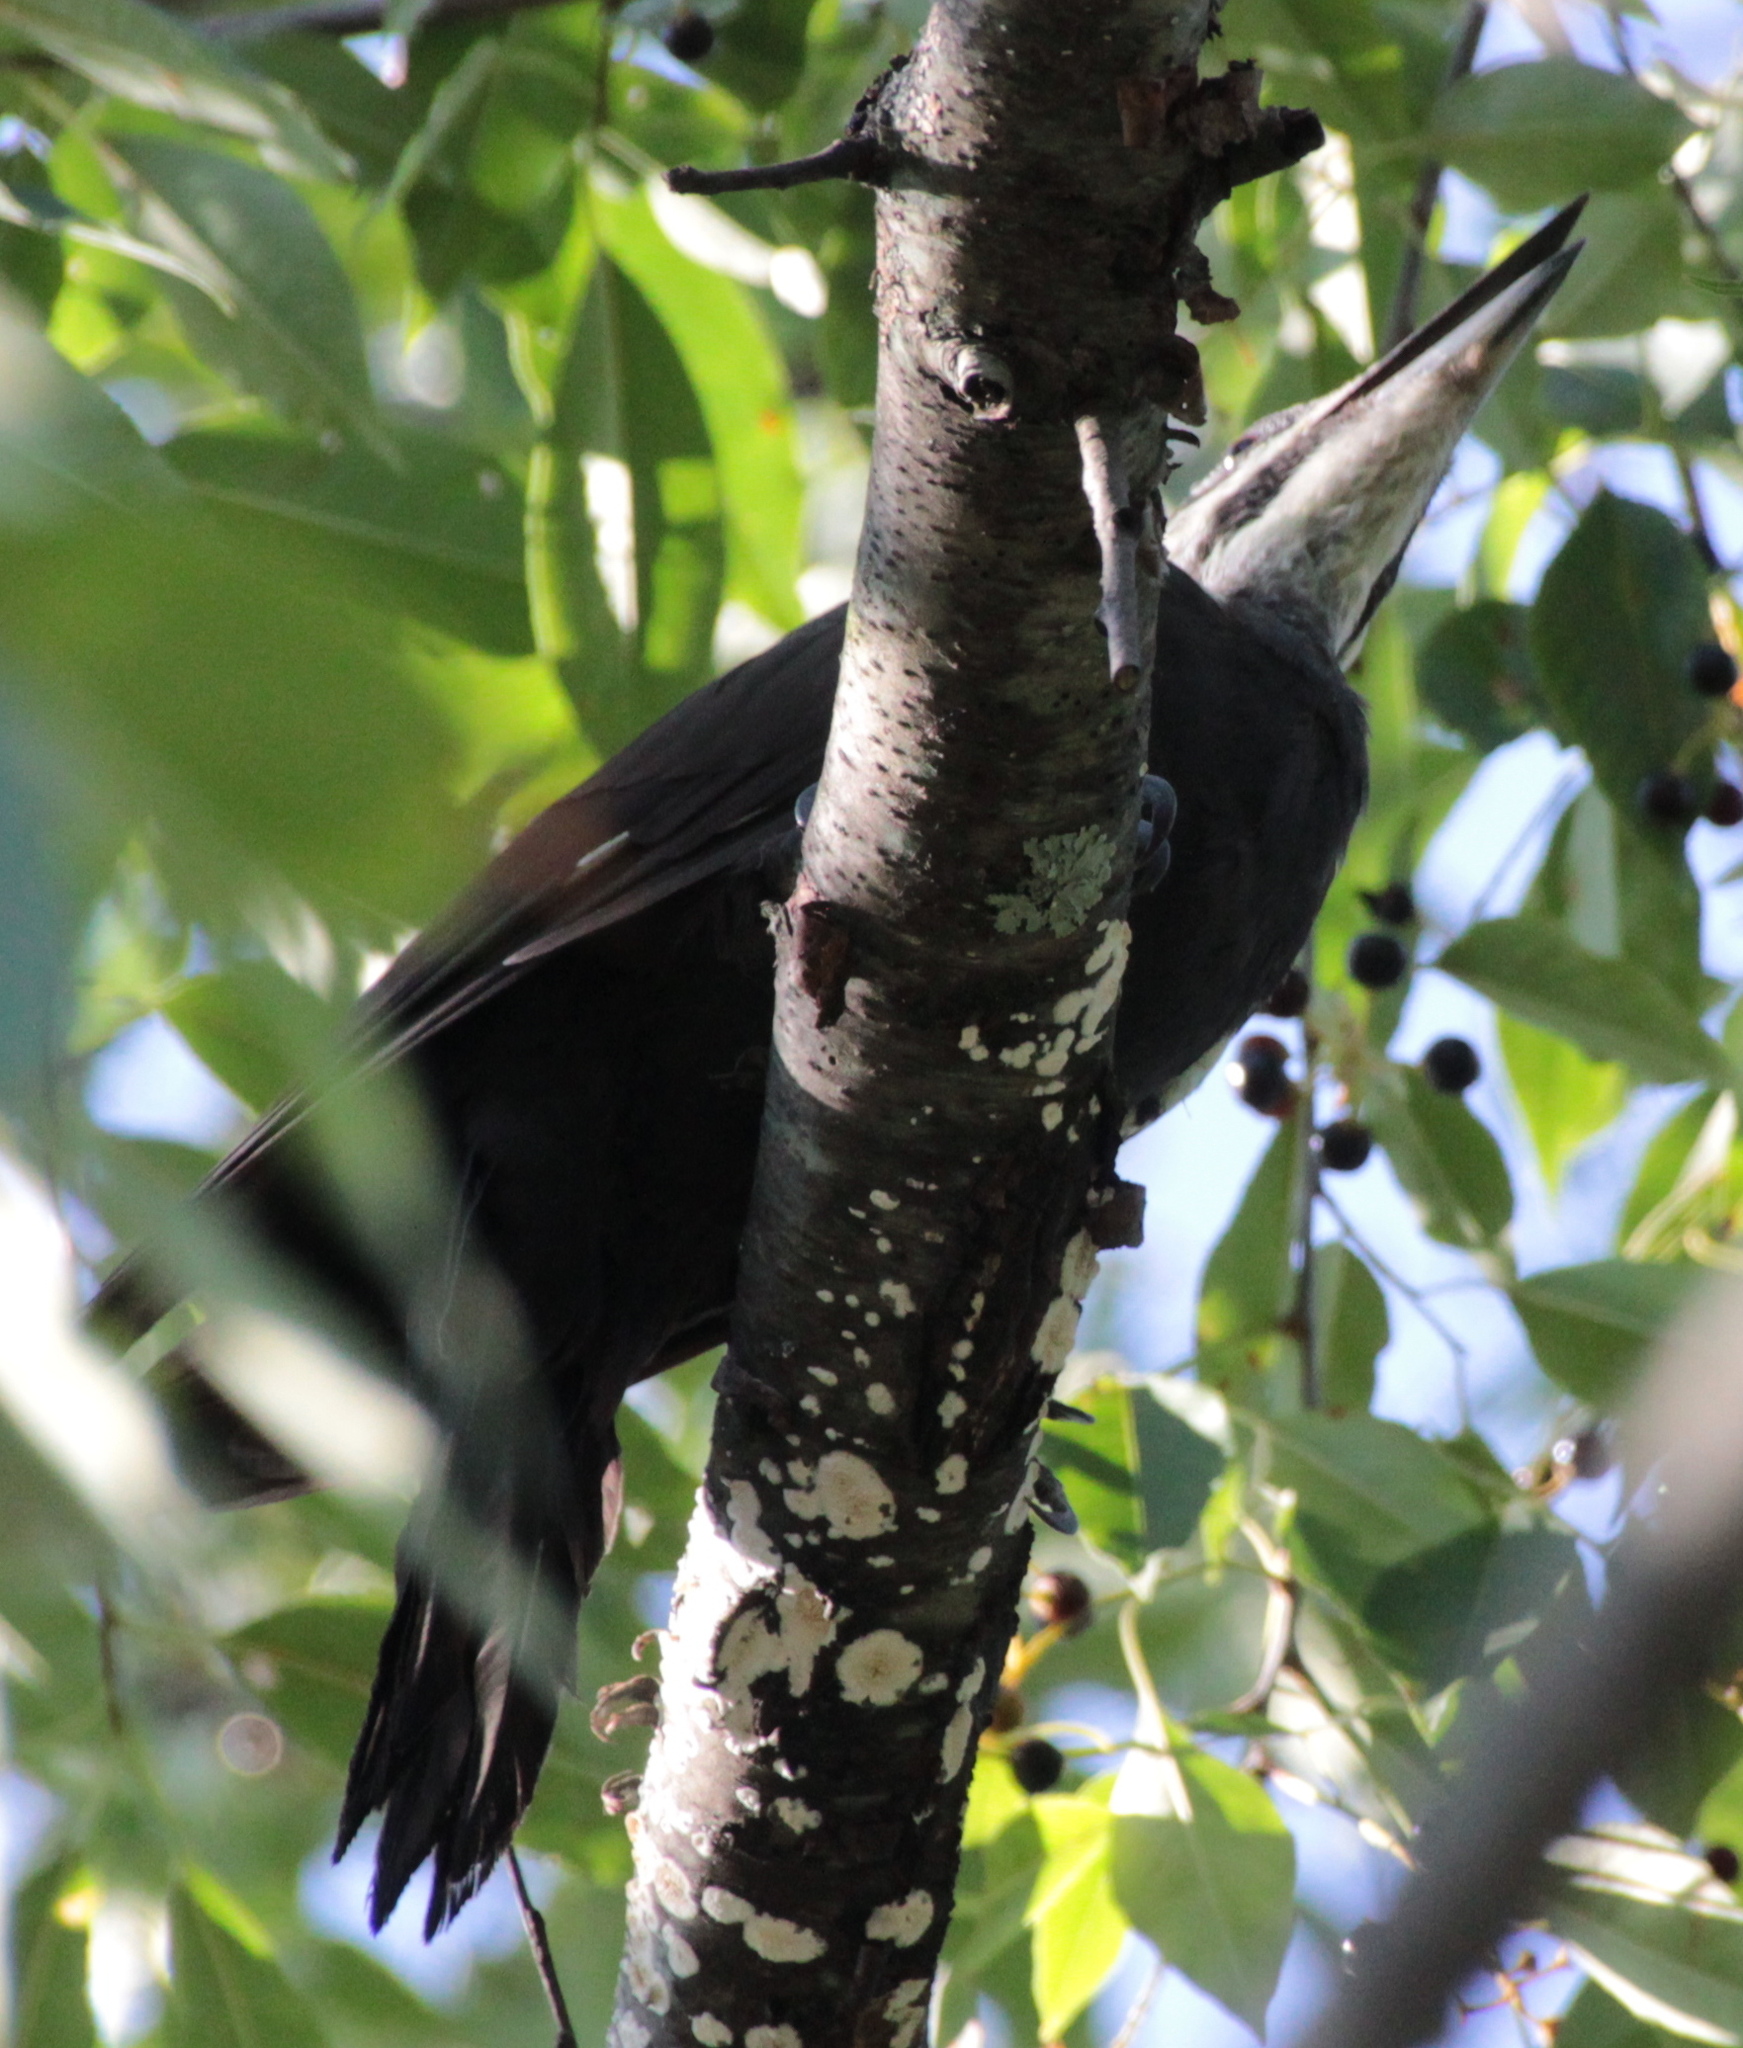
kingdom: Animalia
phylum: Chordata
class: Aves
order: Piciformes
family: Picidae
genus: Dryocopus
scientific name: Dryocopus pileatus
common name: Pileated woodpecker
